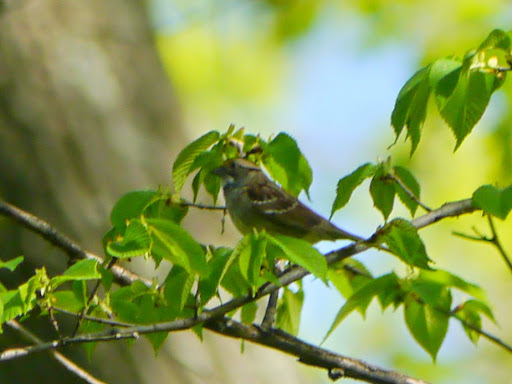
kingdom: Animalia
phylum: Chordata
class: Aves
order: Passeriformes
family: Passerellidae
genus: Zonotrichia
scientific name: Zonotrichia albicollis
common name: White-throated sparrow
